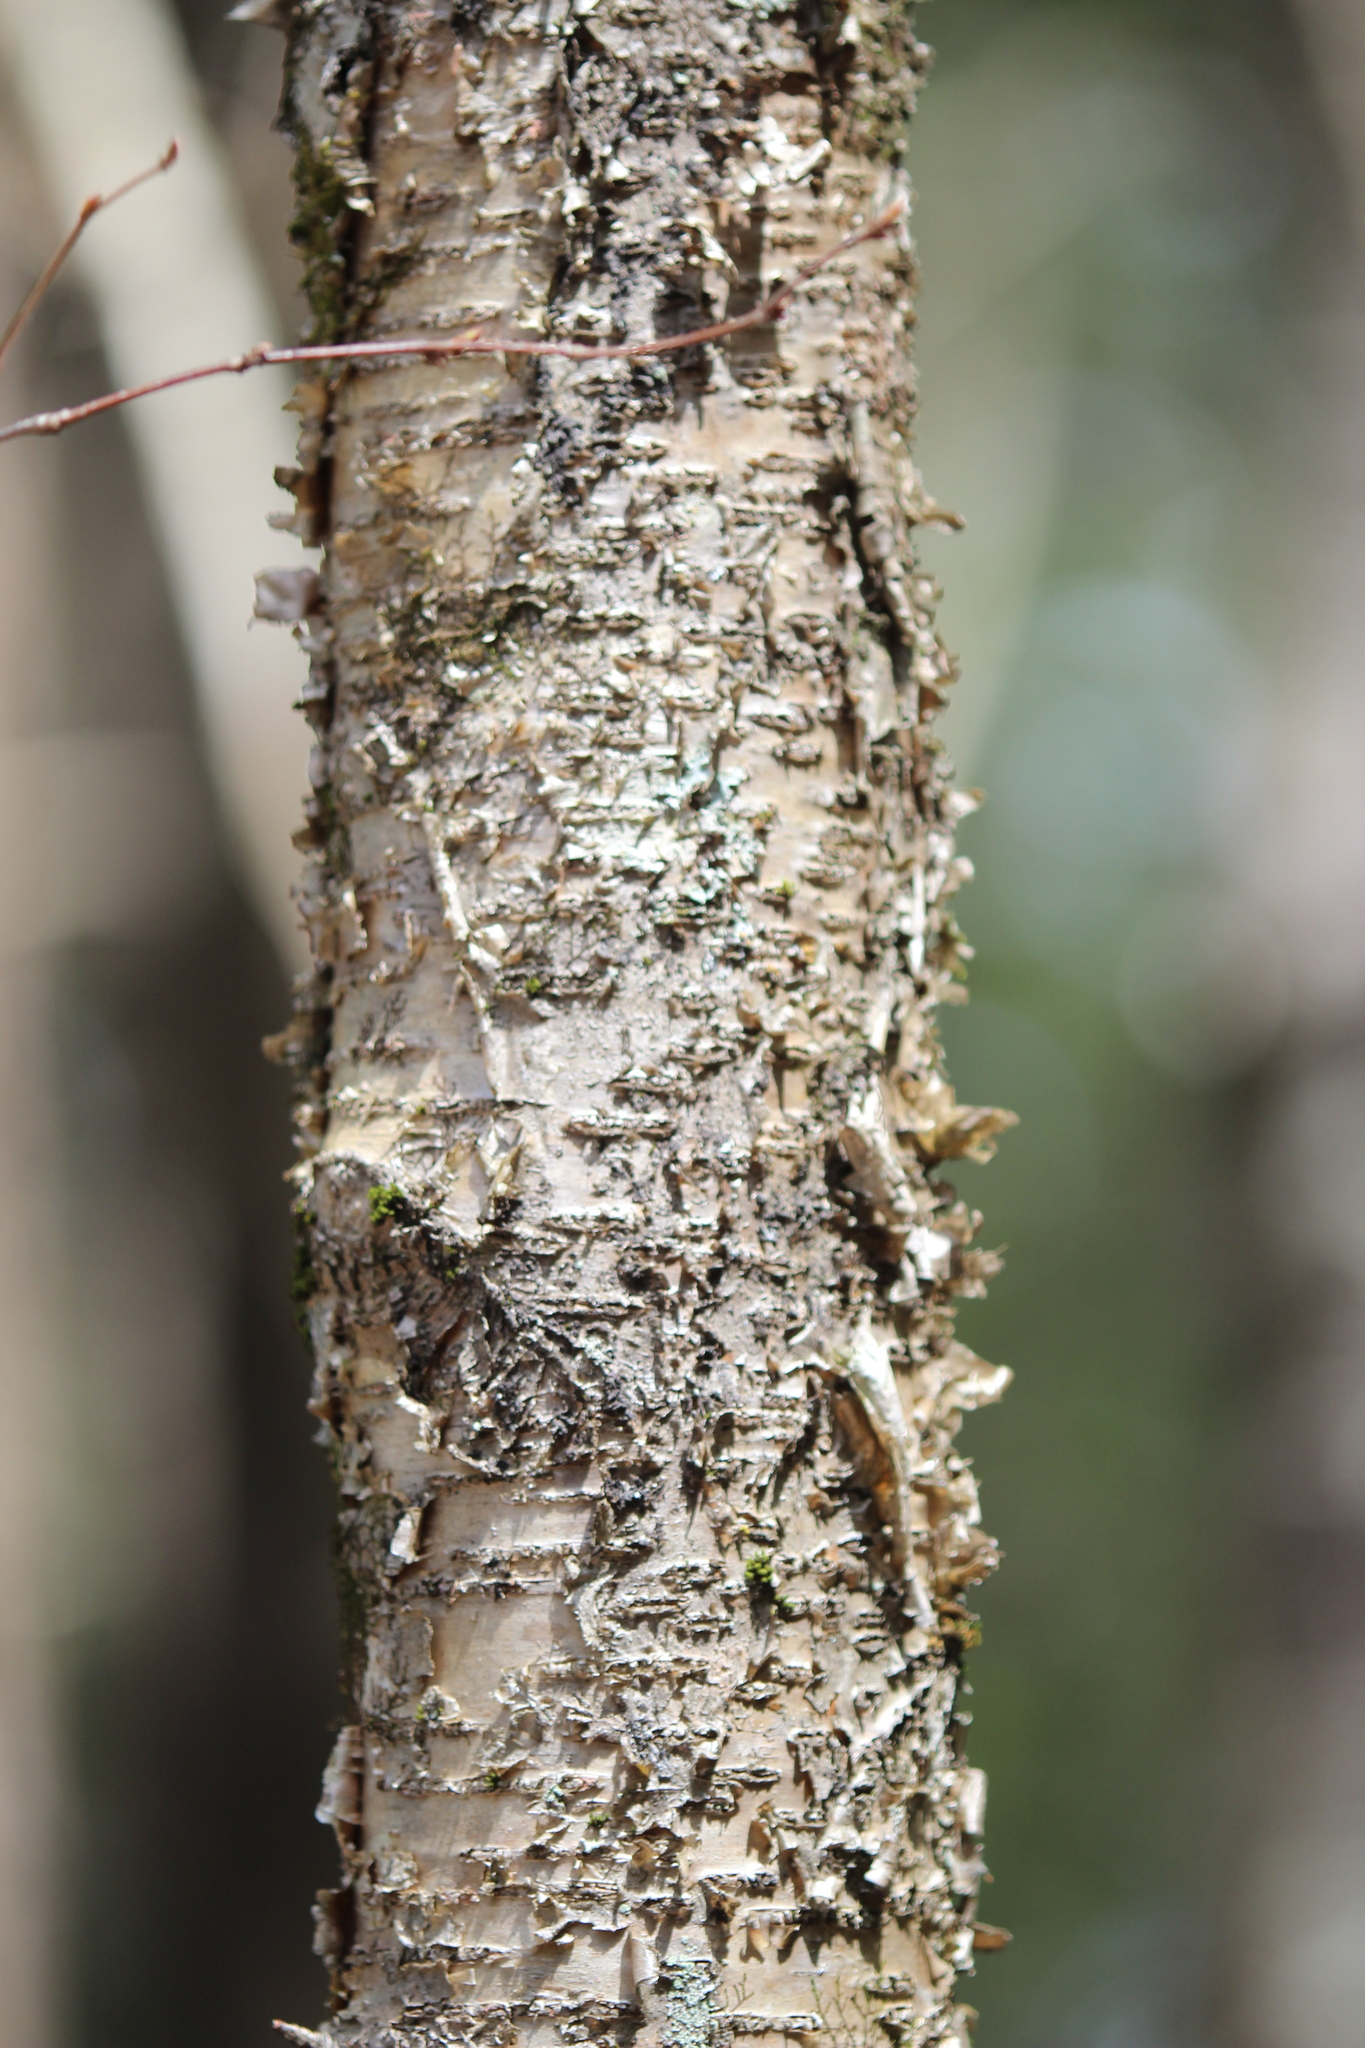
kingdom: Plantae
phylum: Tracheophyta
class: Magnoliopsida
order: Fagales
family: Betulaceae
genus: Betula
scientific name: Betula alleghaniensis
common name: Yellow birch
